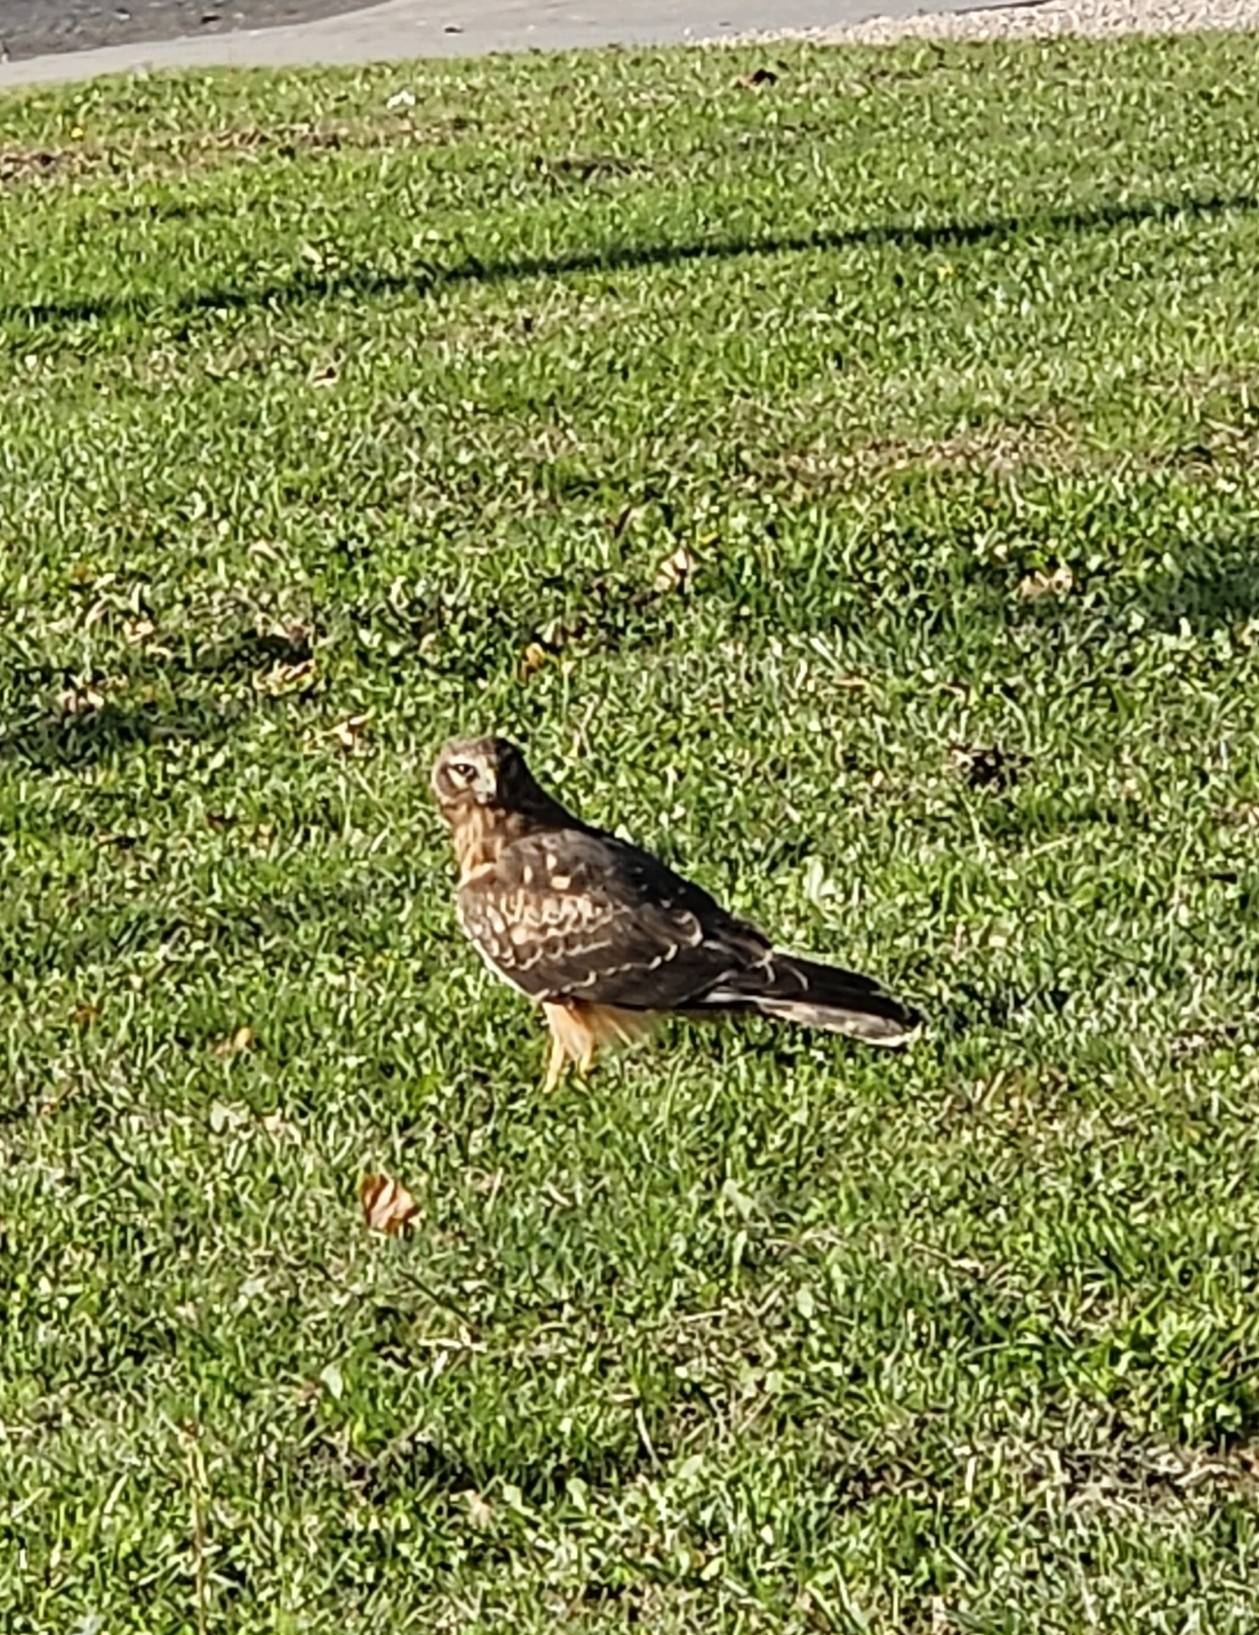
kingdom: Animalia
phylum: Chordata
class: Aves
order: Accipitriformes
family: Accipitridae
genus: Circus
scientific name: Circus cyaneus
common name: Hen harrier
